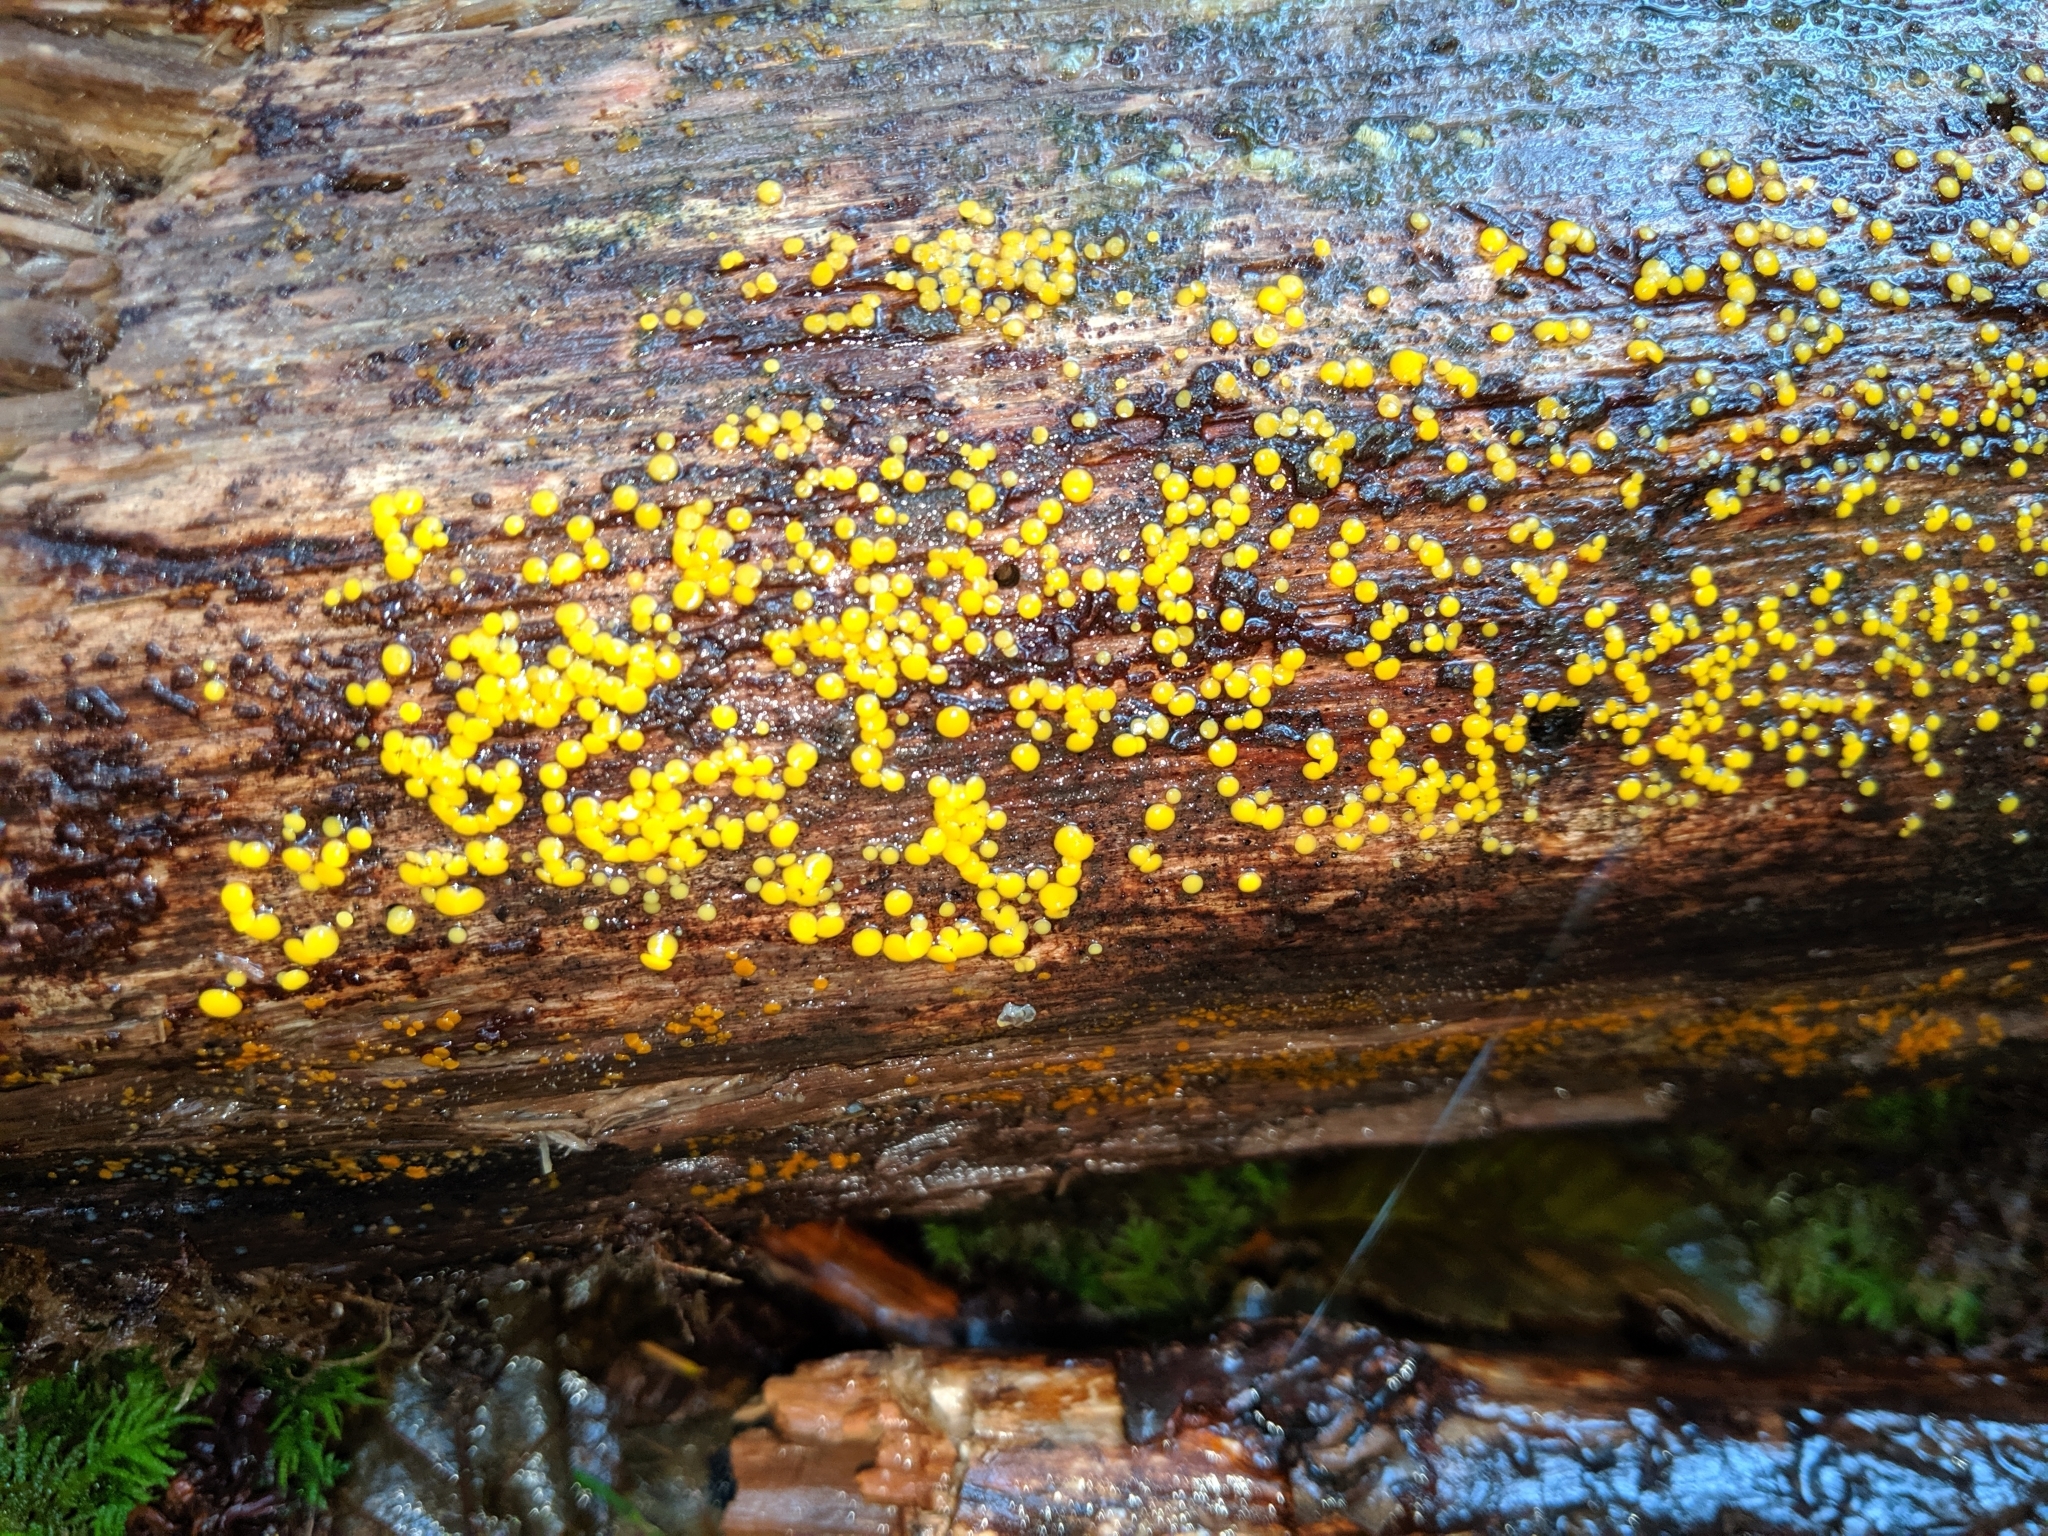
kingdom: Fungi
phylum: Ascomycota
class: Leotiomycetes
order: Helotiales
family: Pezizellaceae
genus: Calycina
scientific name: Calycina citrina
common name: Yellow fairy cups
